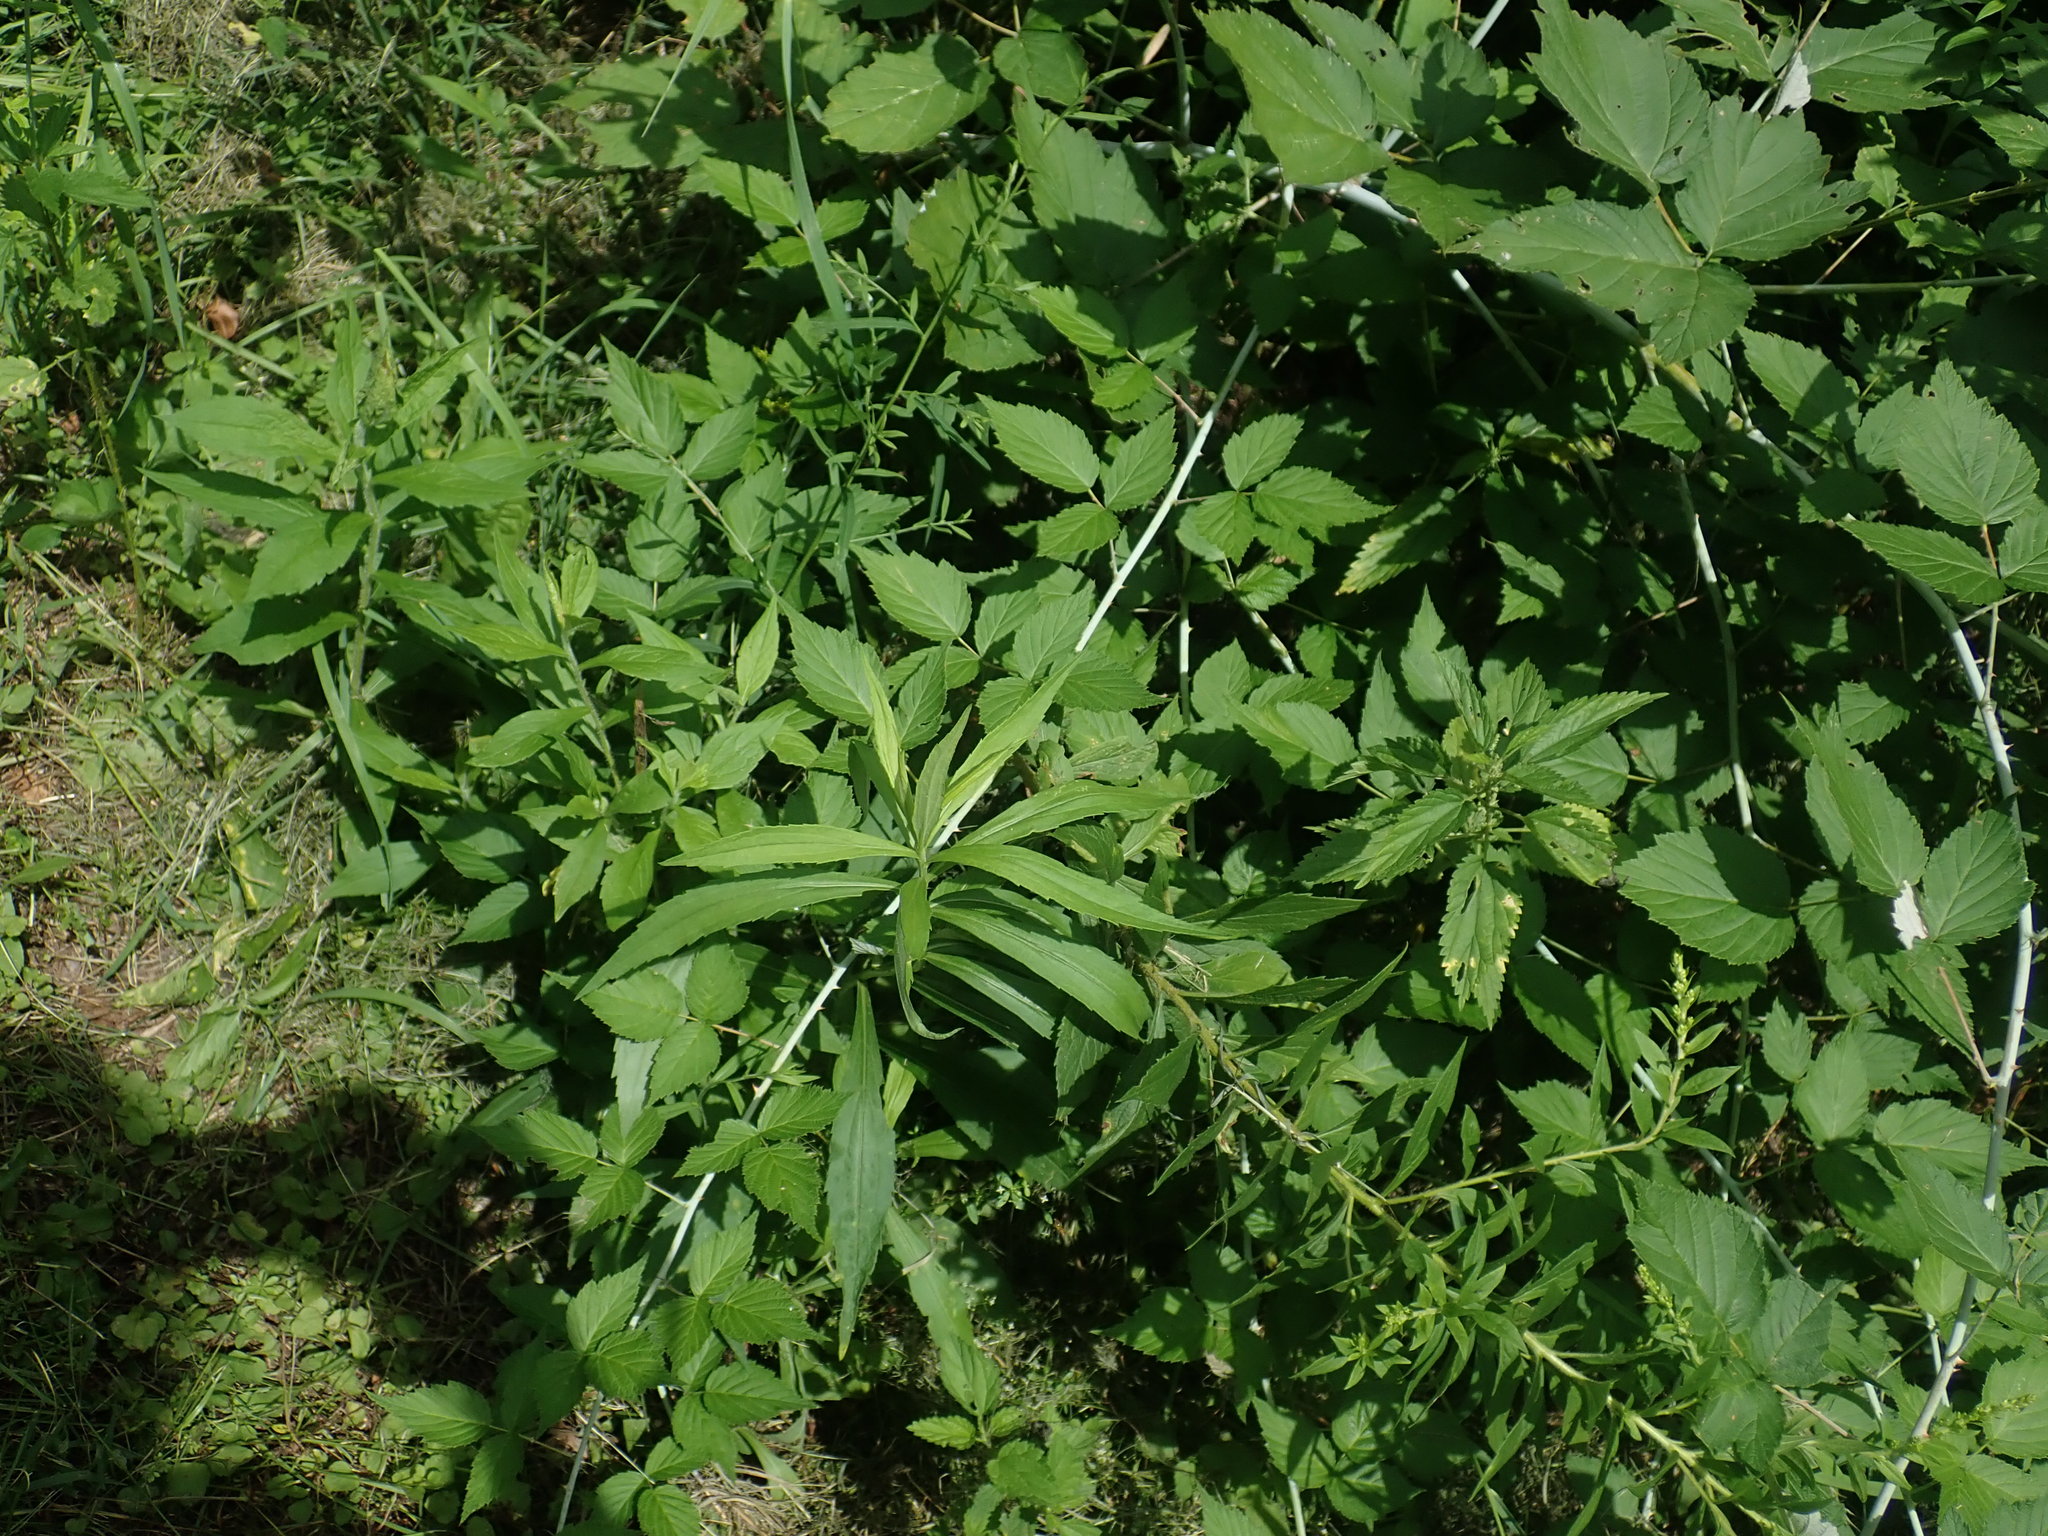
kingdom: Plantae
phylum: Tracheophyta
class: Magnoliopsida
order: Rosales
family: Rosaceae
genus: Rubus
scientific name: Rubus occidentalis
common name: Black raspberry
